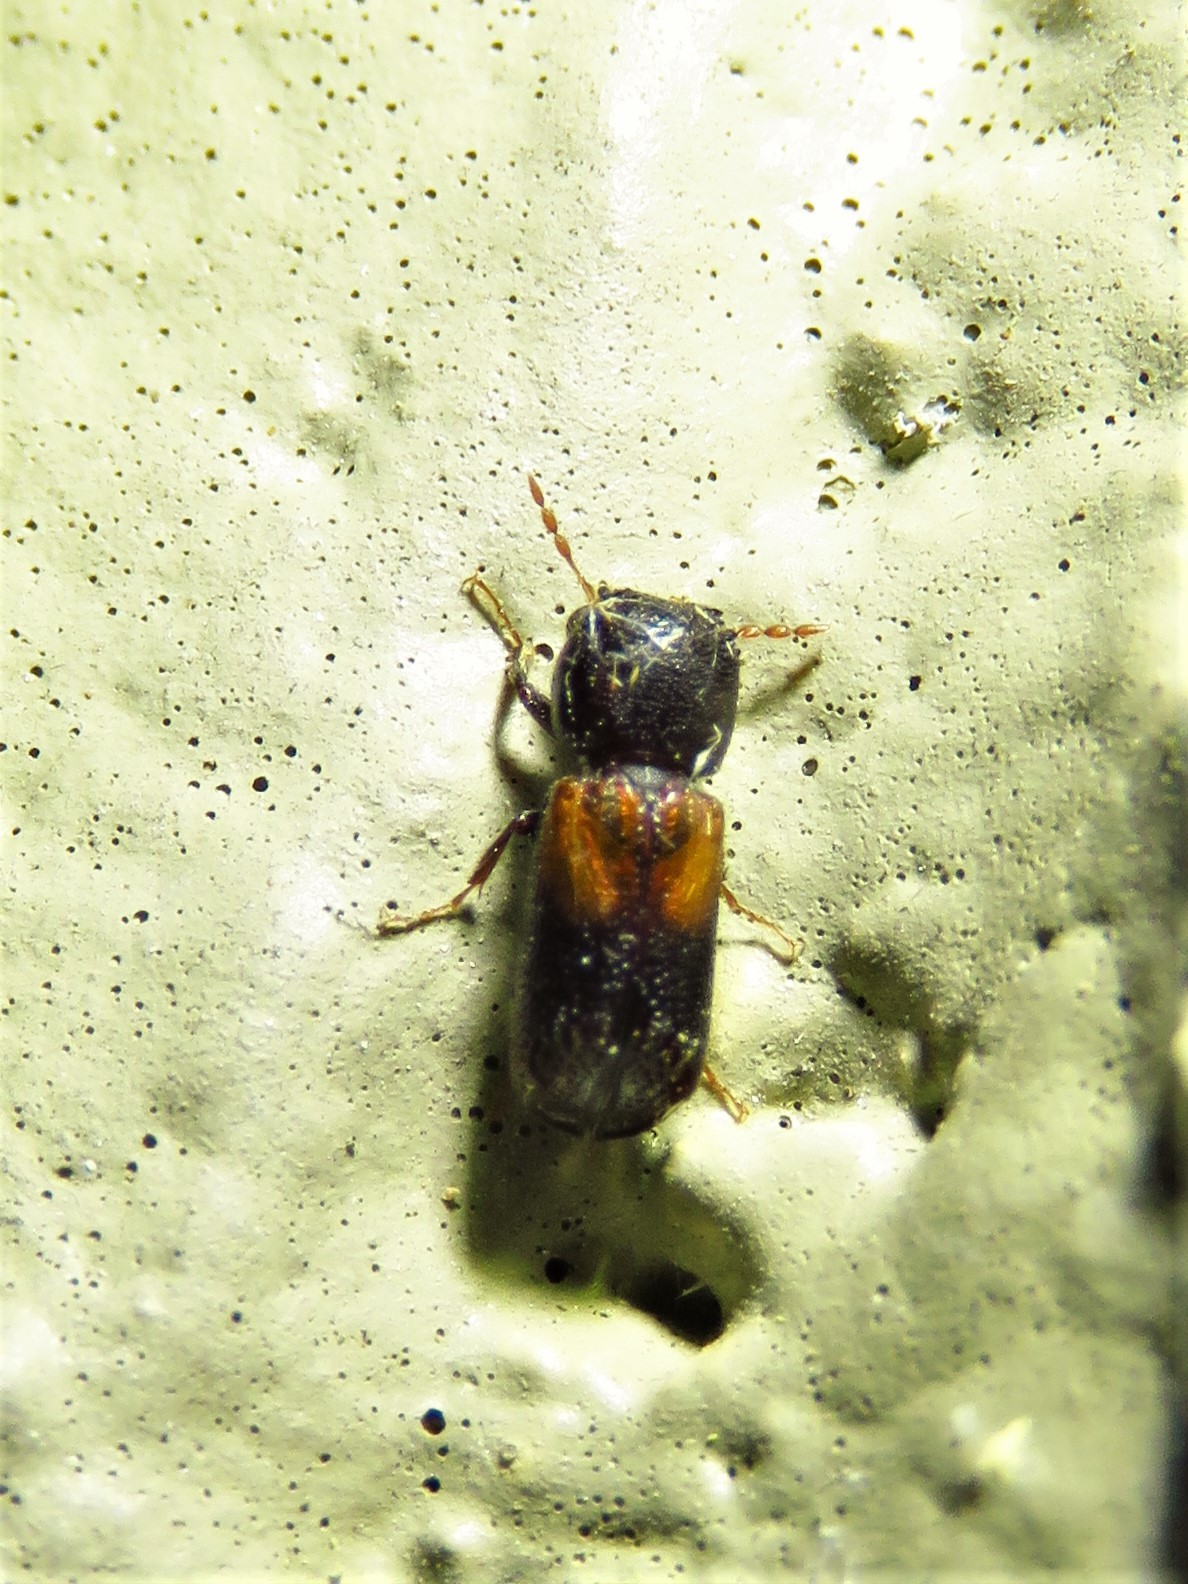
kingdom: Animalia
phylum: Arthropoda
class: Insecta
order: Coleoptera
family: Bostrichidae
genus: Xylobiops
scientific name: Xylobiops basilaris
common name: Red-shouldered bostrichid
